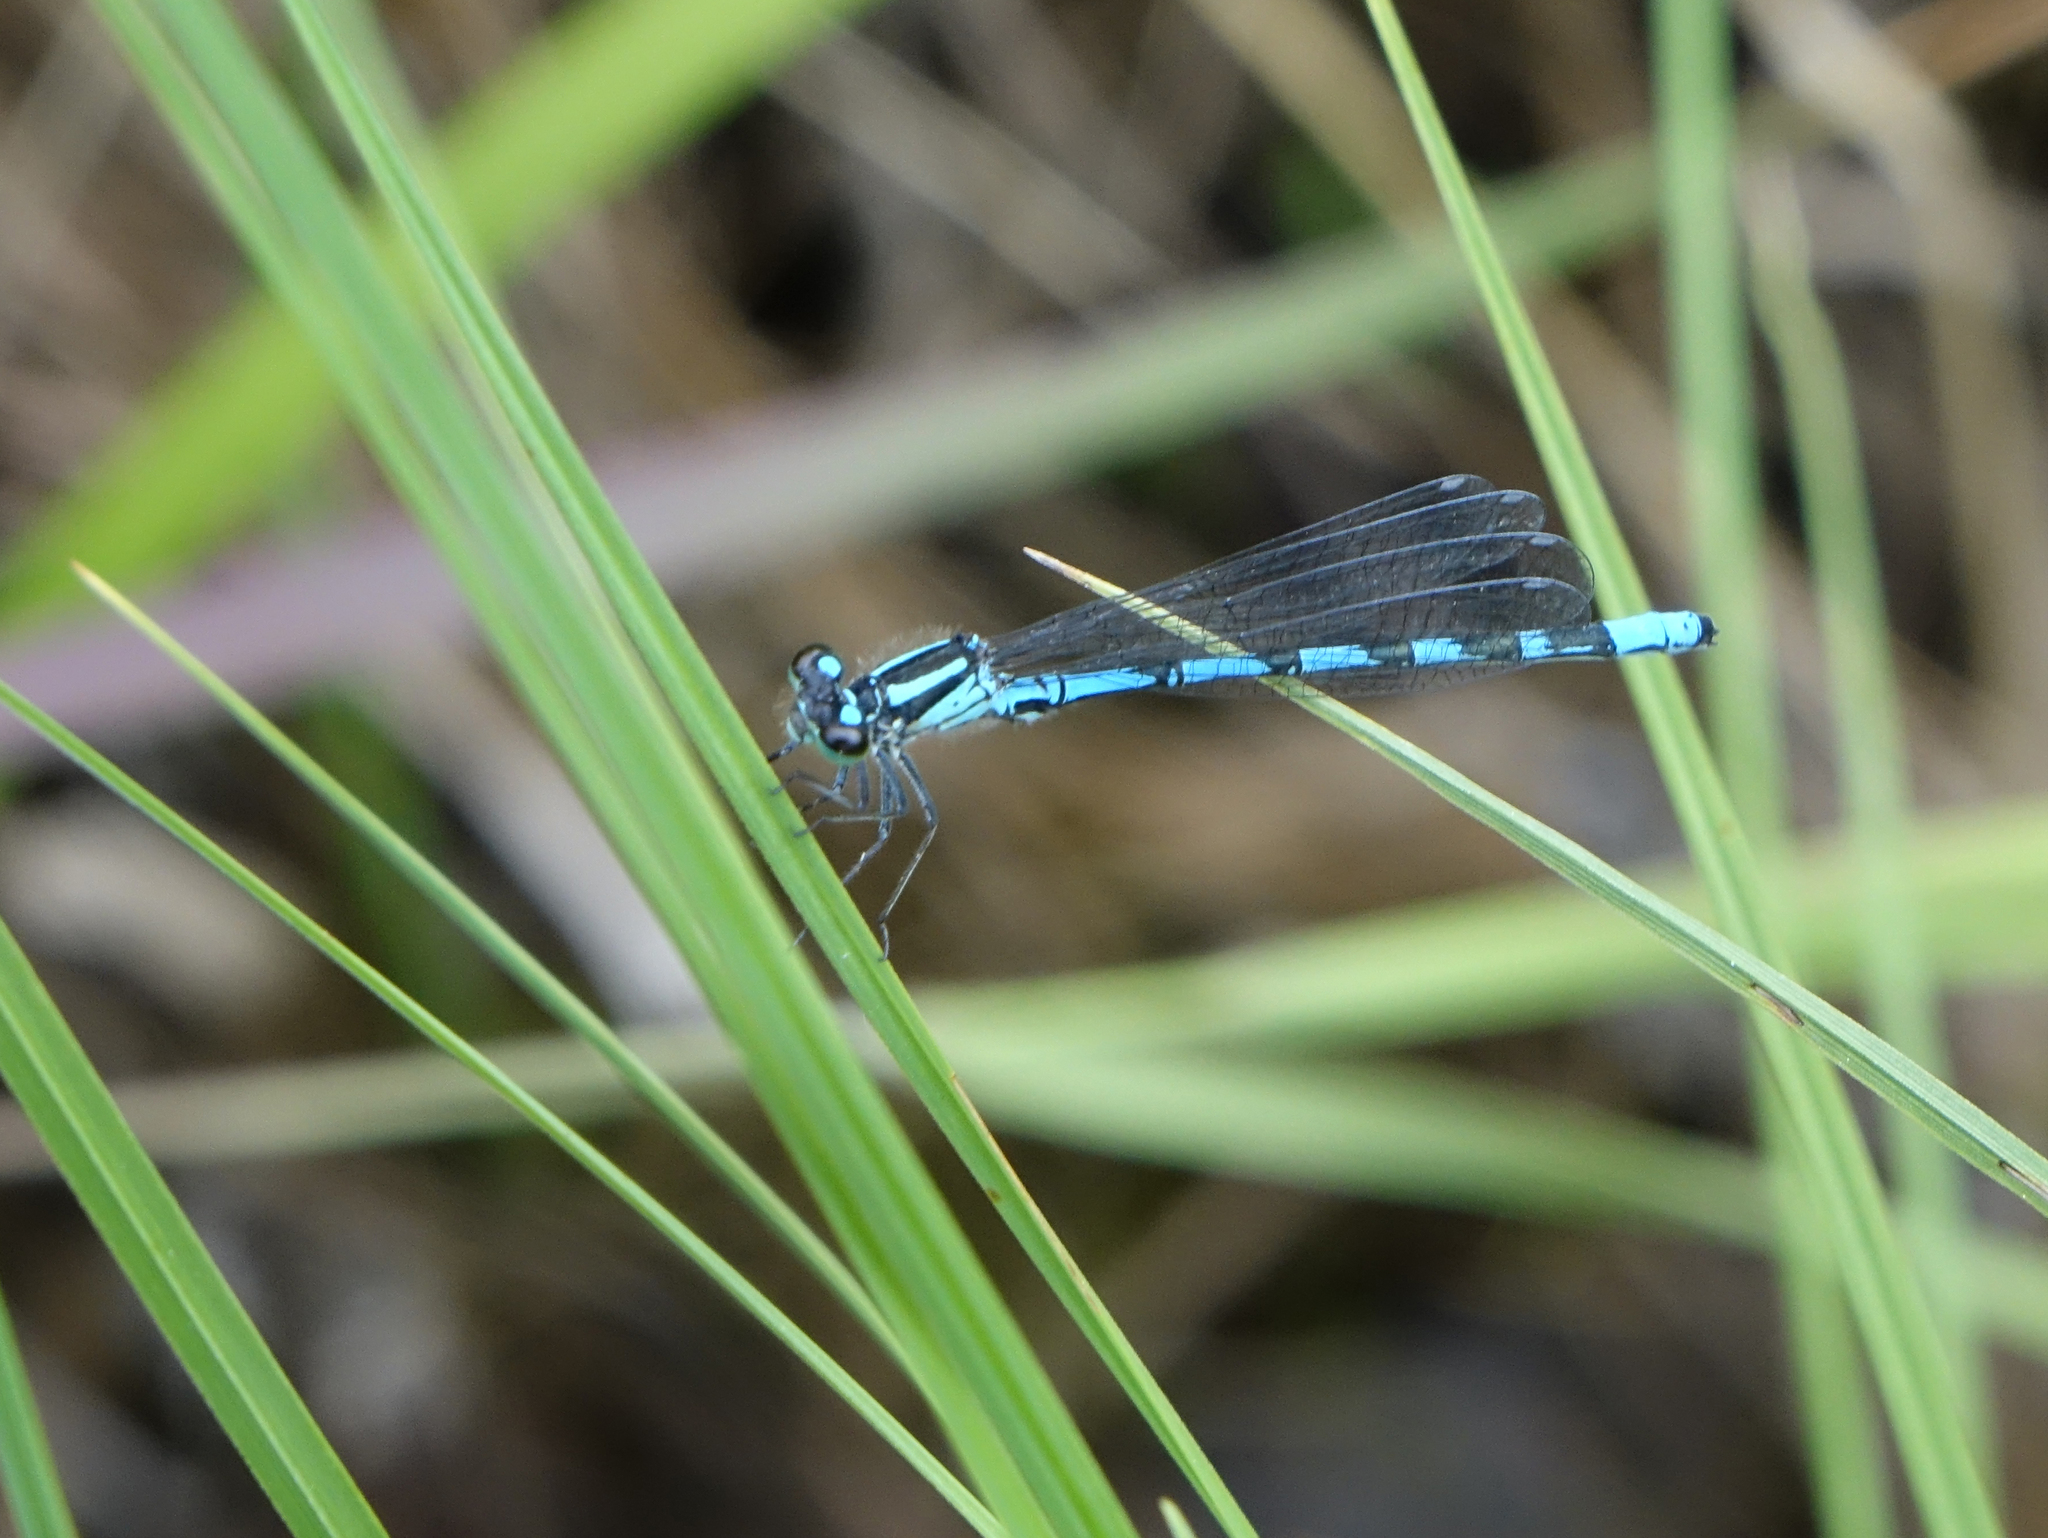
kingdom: Animalia
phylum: Arthropoda
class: Insecta
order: Odonata
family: Coenagrionidae
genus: Coenagrion
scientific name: Coenagrion hylas
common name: Frey's damselfly
